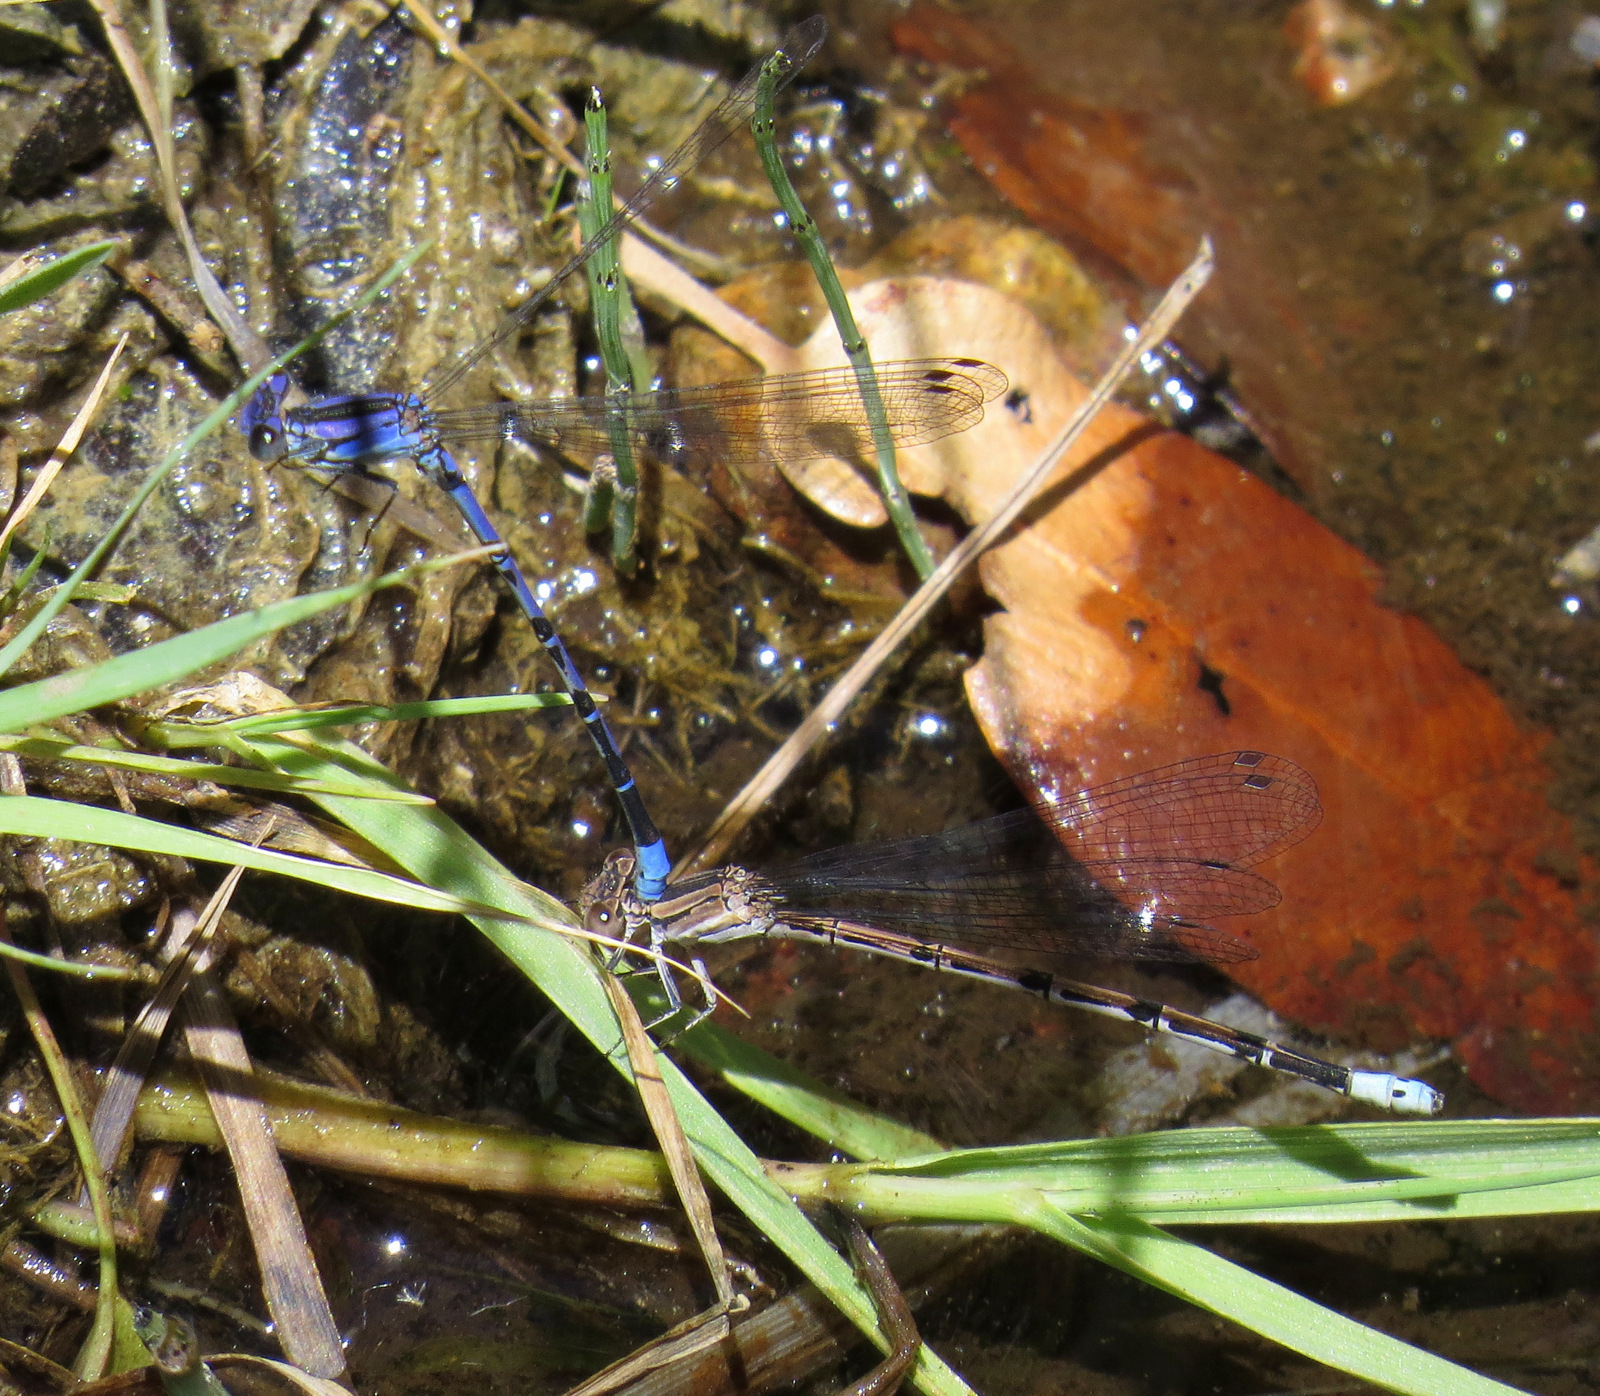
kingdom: Animalia
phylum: Arthropoda
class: Insecta
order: Odonata
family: Coenagrionidae
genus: Argia
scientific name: Argia funebris
